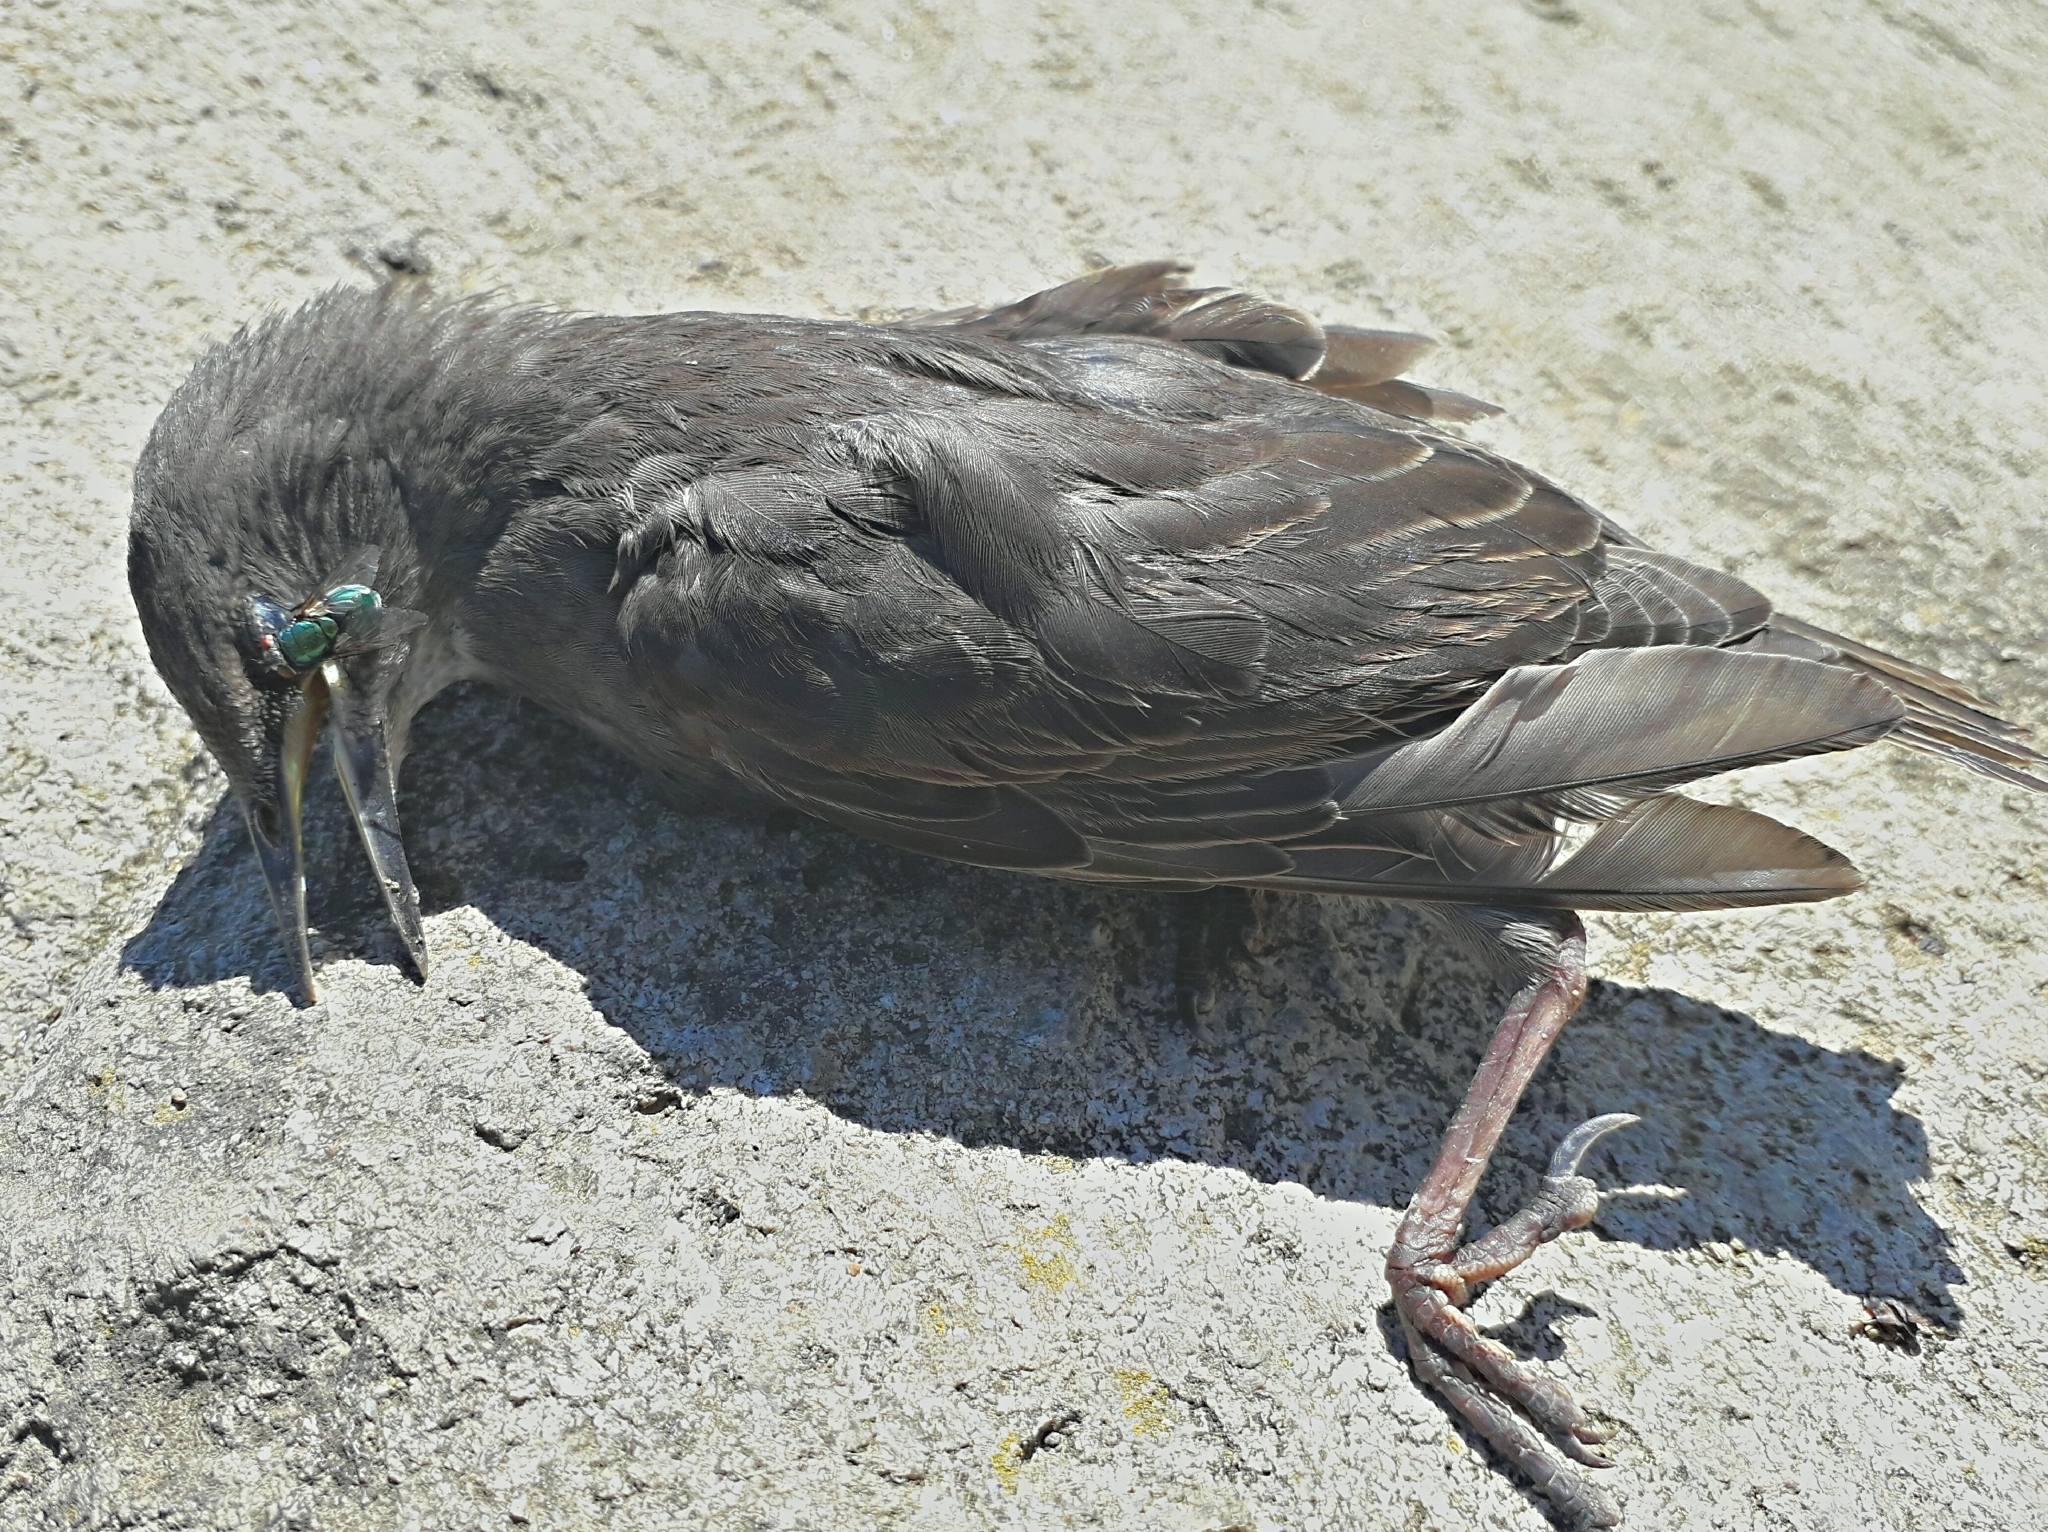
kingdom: Animalia
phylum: Chordata
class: Aves
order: Passeriformes
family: Sturnidae
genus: Sturnus
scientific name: Sturnus vulgaris
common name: Common starling
